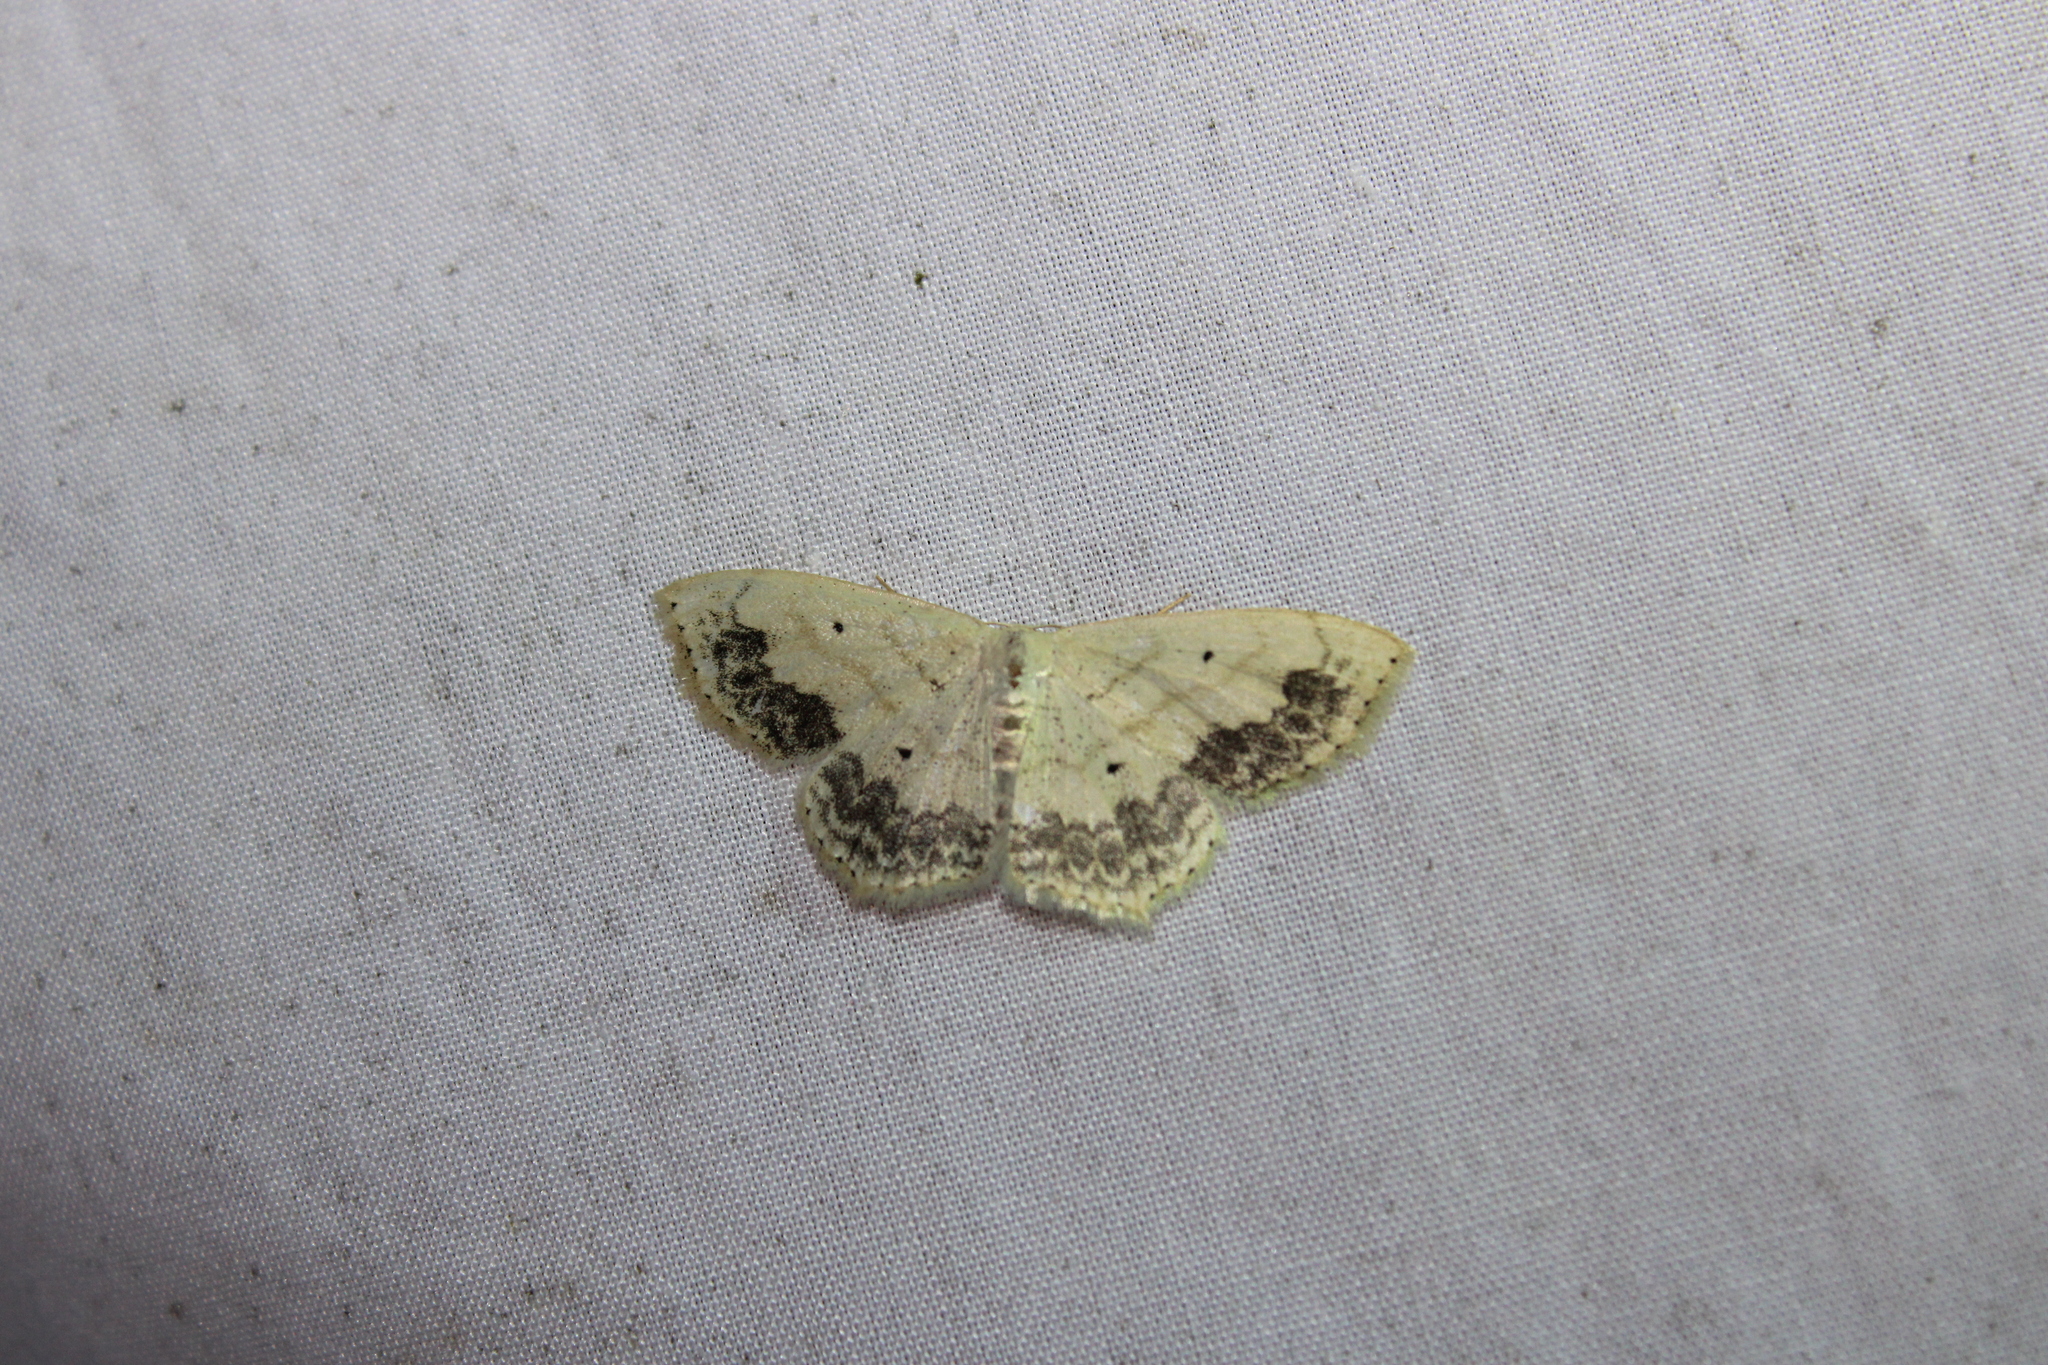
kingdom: Animalia
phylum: Arthropoda
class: Insecta
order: Lepidoptera
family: Geometridae
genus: Scopula
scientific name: Scopula limboundata
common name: Large lace border
